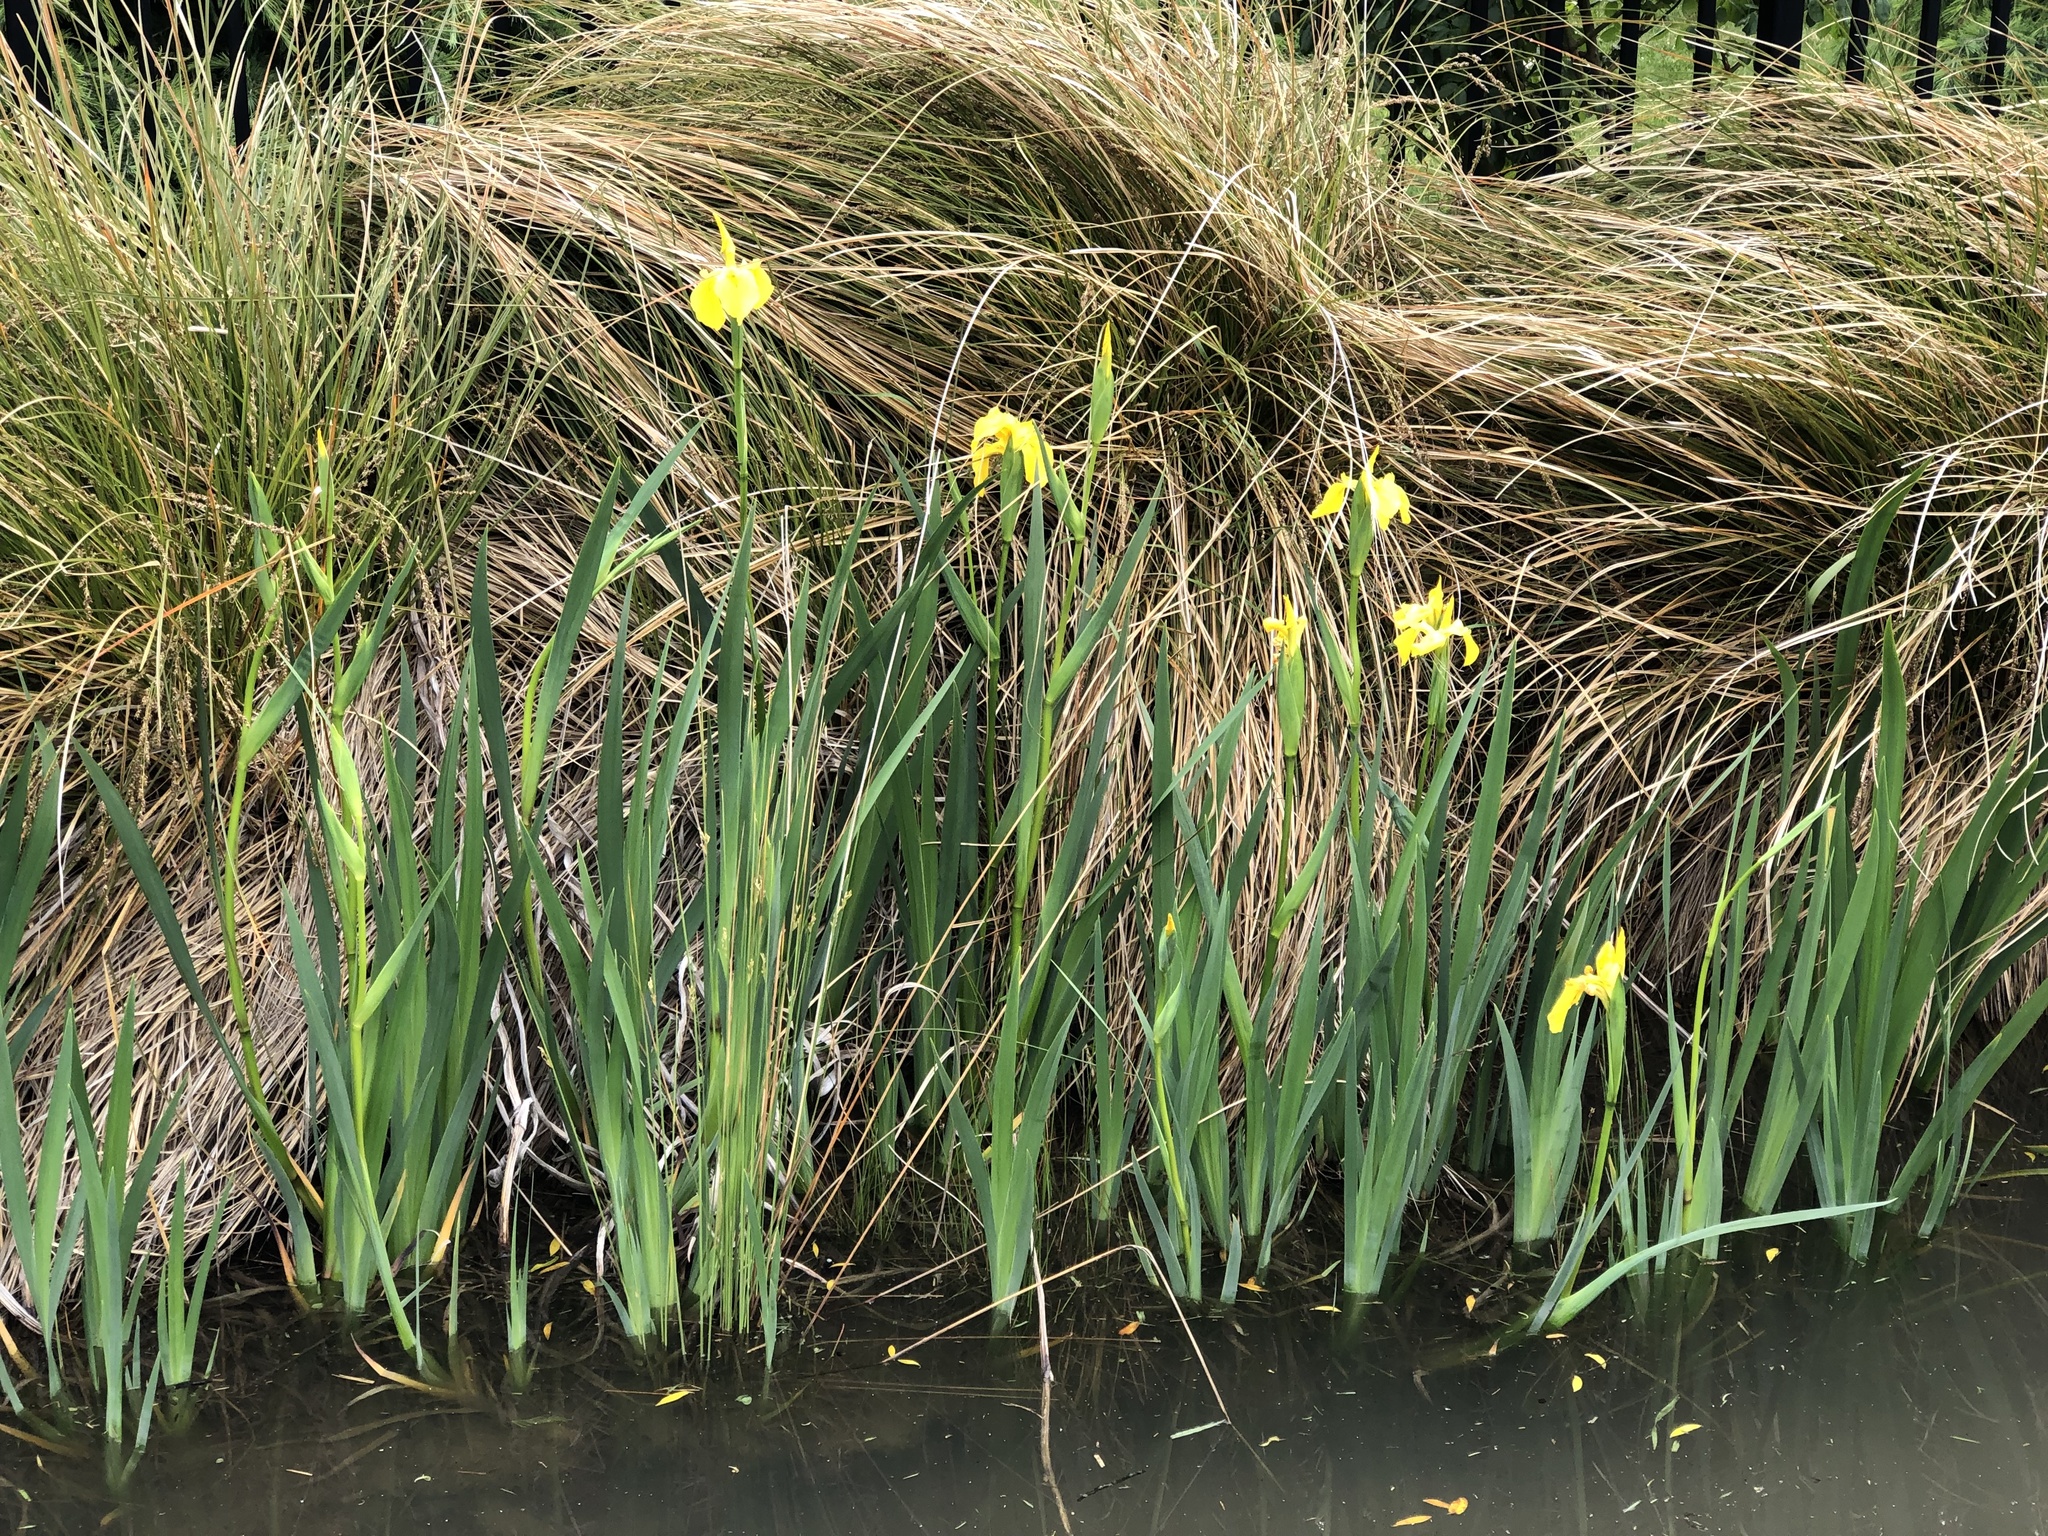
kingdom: Plantae
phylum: Tracheophyta
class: Liliopsida
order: Asparagales
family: Iridaceae
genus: Iris
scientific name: Iris pseudacorus
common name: Yellow flag
